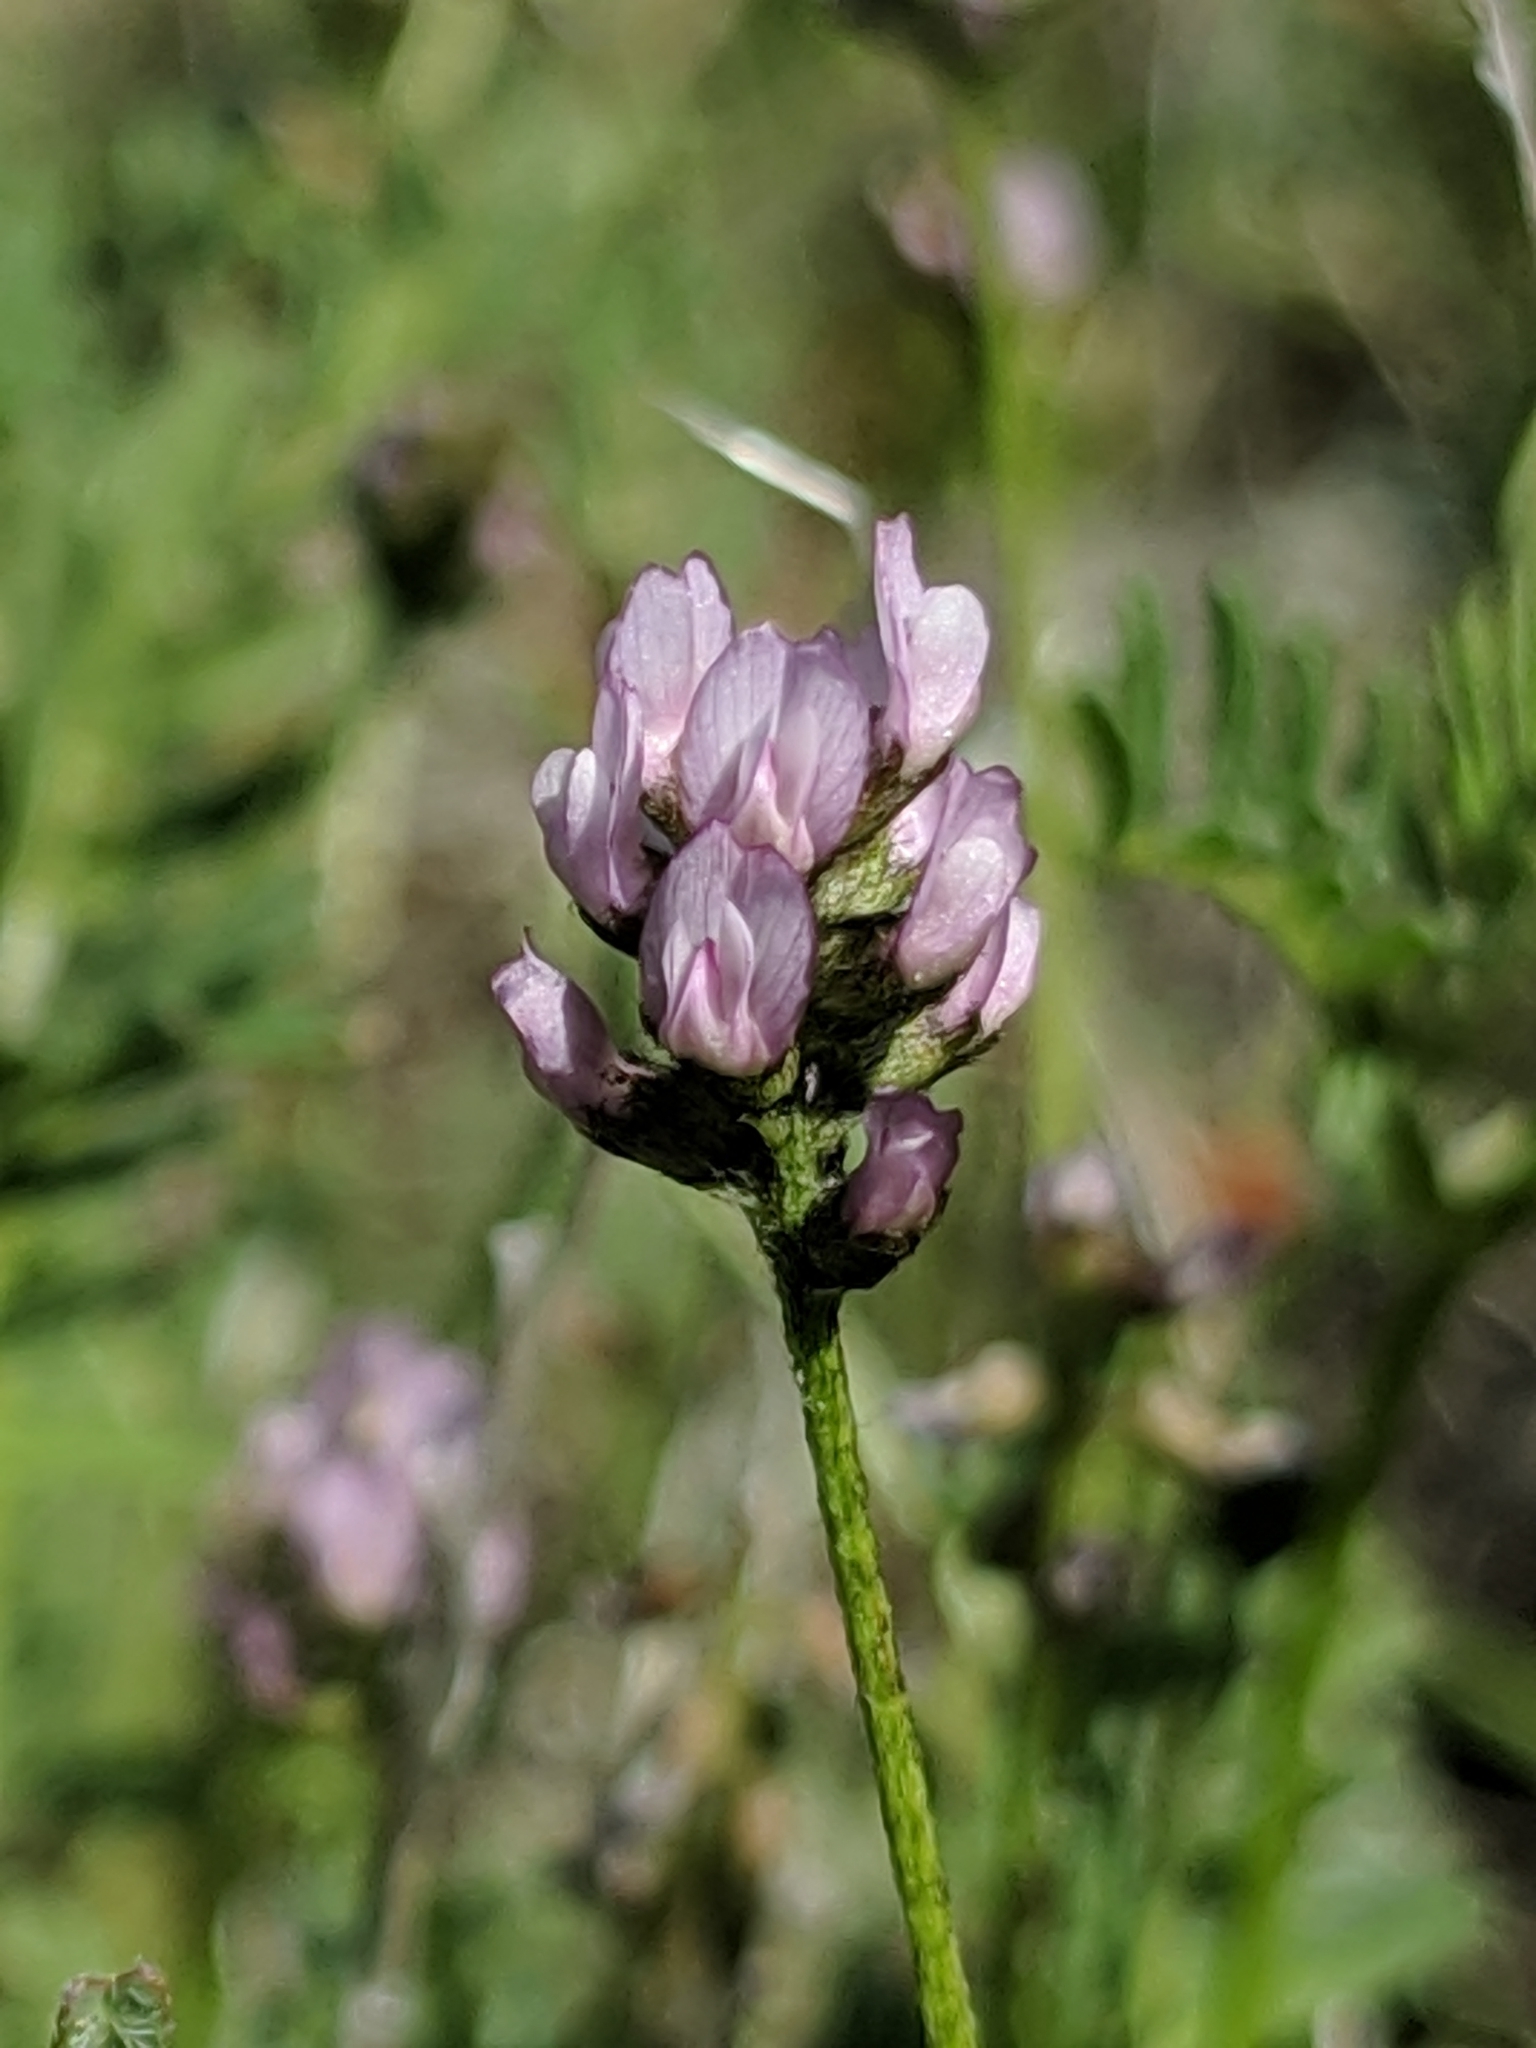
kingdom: Plantae
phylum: Tracheophyta
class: Magnoliopsida
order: Fabales
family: Fabaceae
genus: Astragalus
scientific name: Astragalus gambelianus
